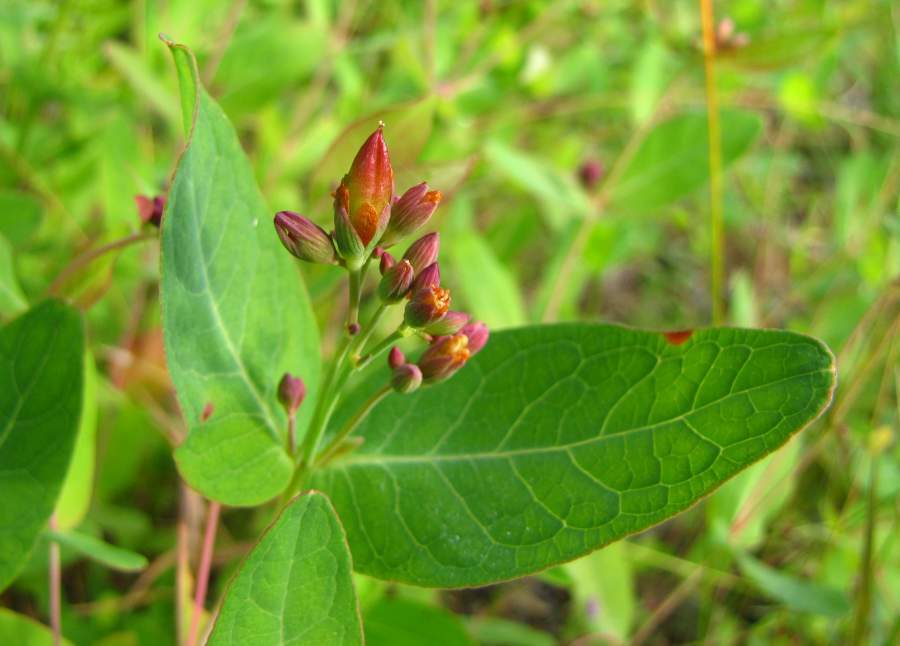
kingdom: Plantae
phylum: Tracheophyta
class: Magnoliopsida
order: Malpighiales
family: Hypericaceae
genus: Triadenum
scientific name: Triadenum fraseri
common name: Fraser's marsh st. johnswort
